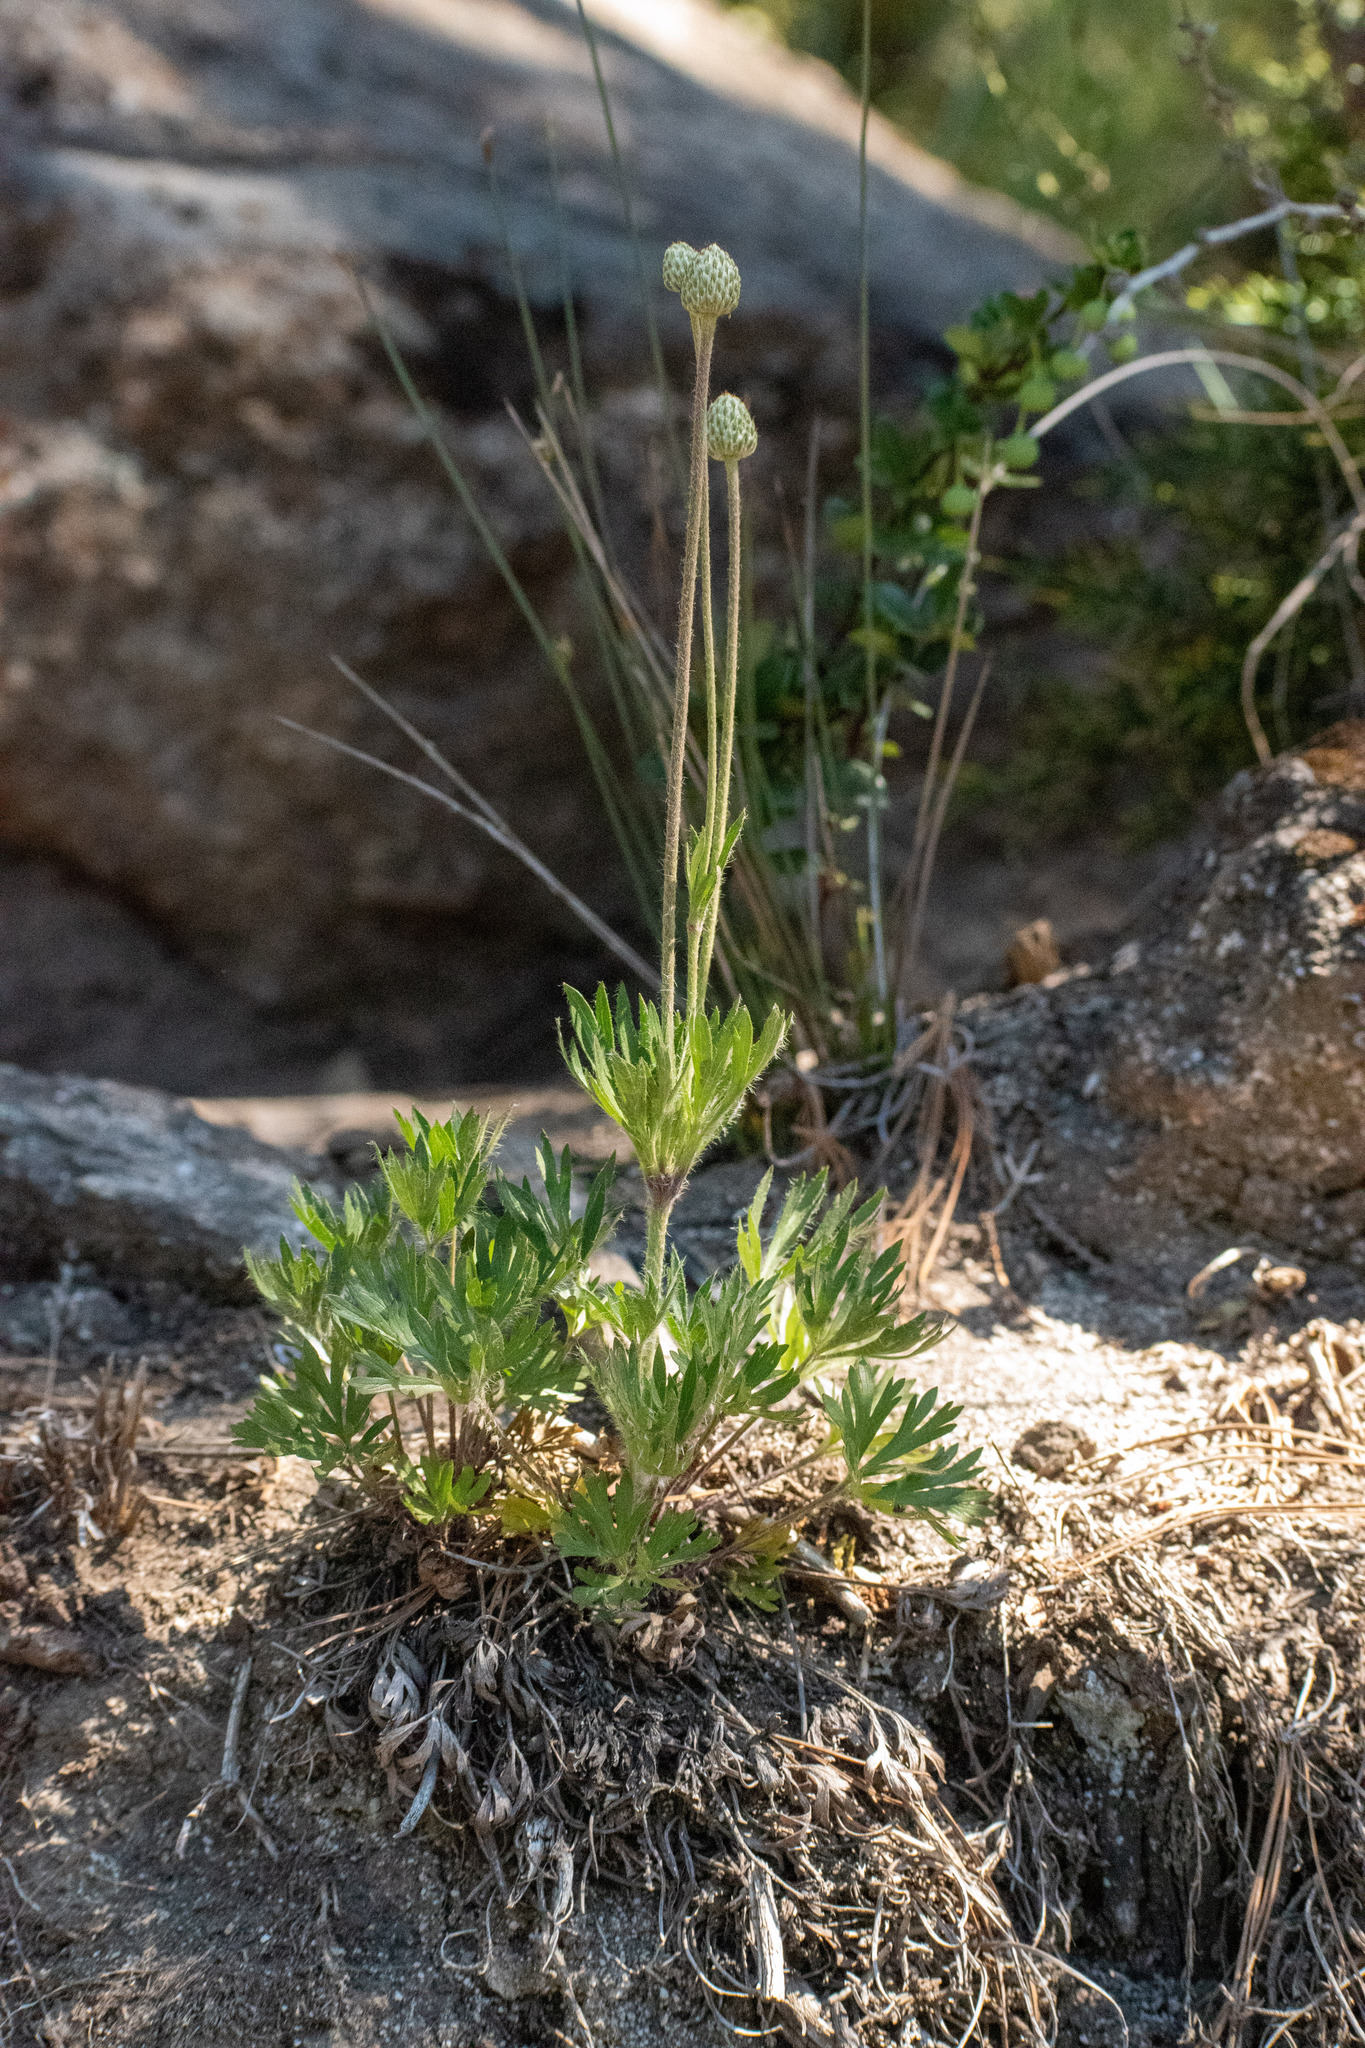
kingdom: Plantae
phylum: Tracheophyta
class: Magnoliopsida
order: Ranunculales
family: Ranunculaceae
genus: Anemone
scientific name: Anemone multifida
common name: Bird's-foot anemone
